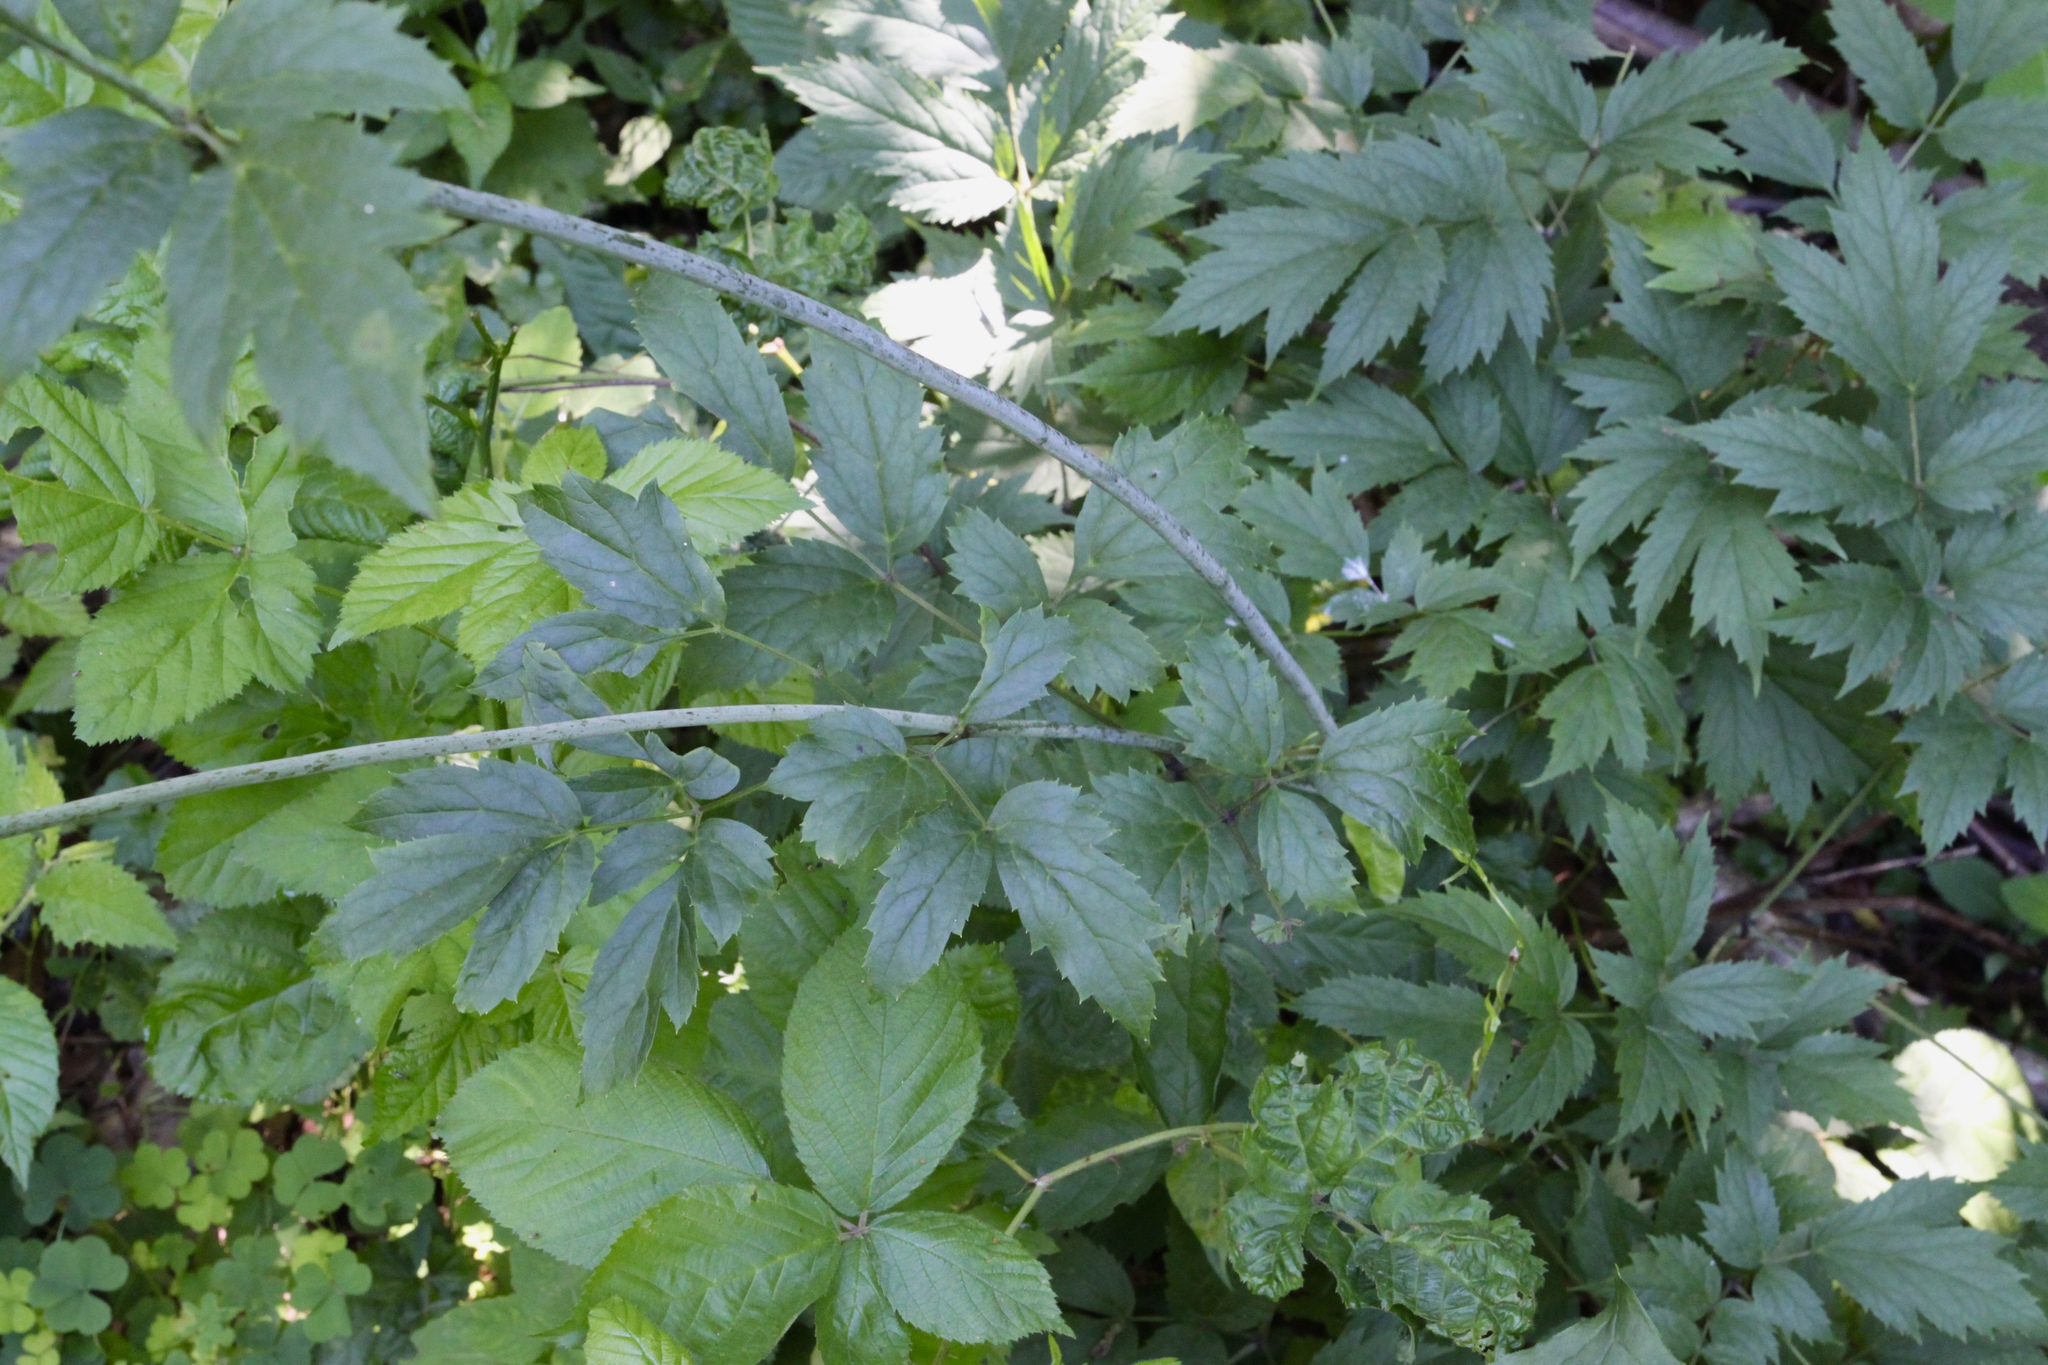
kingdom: Plantae
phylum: Tracheophyta
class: Magnoliopsida
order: Ranunculales
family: Ranunculaceae
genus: Actaea
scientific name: Actaea racemosa
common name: Black cohosh
